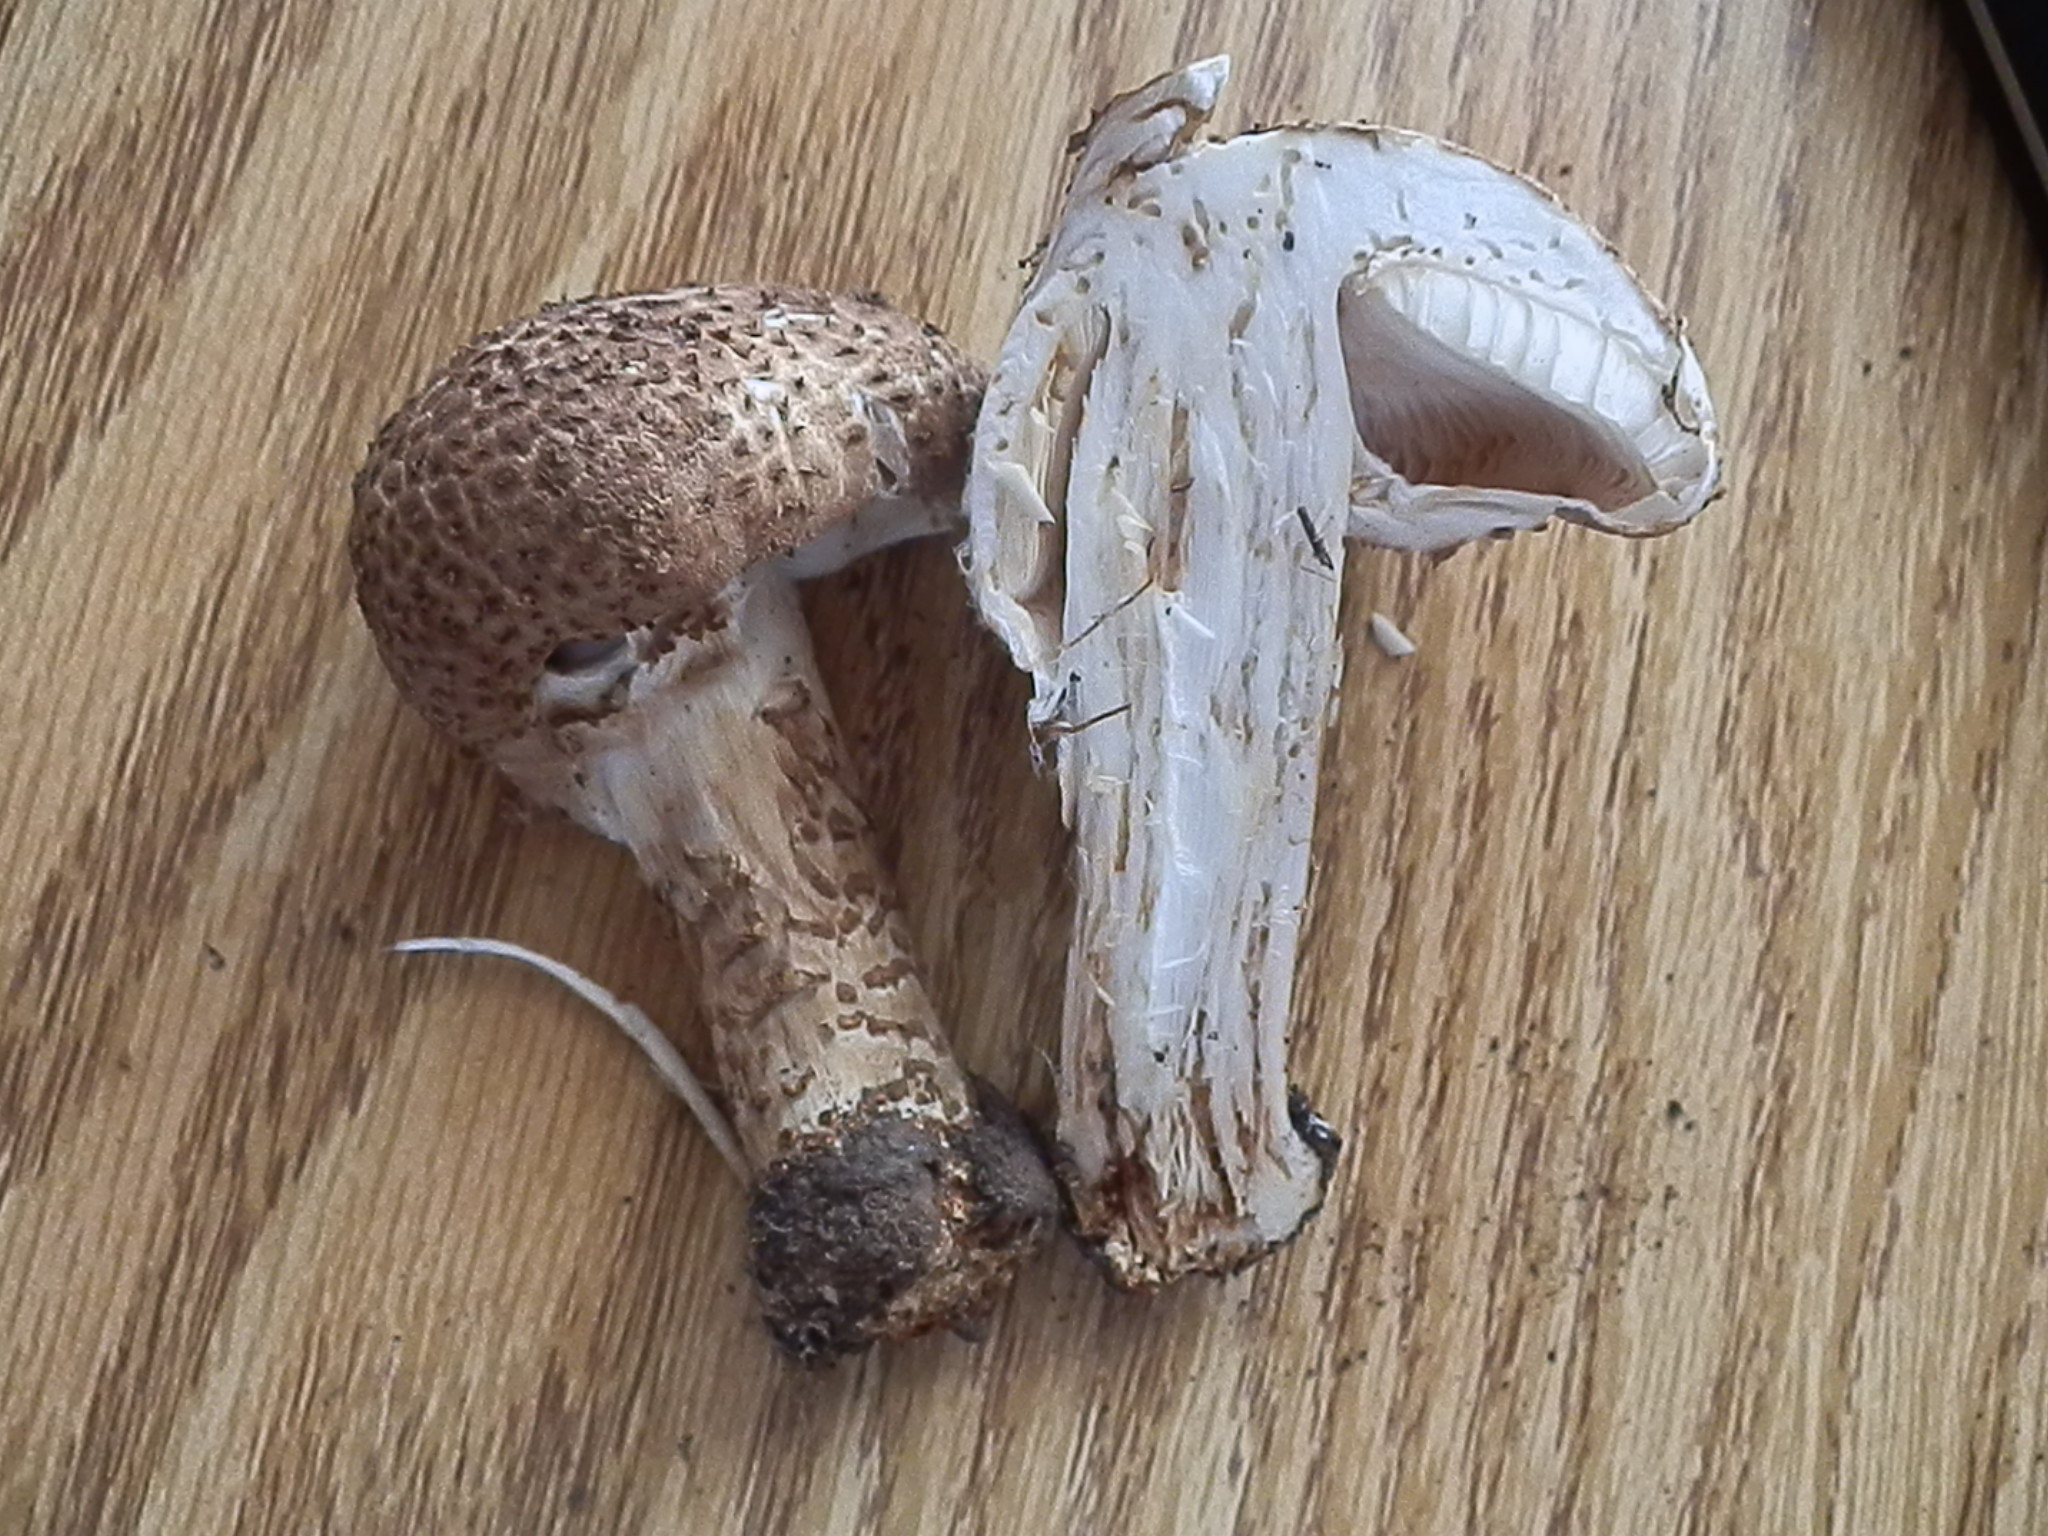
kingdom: Fungi
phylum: Basidiomycota
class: Agaricomycetes
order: Agaricales
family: Agaricaceae
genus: Echinoderma
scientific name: Echinoderma asperum
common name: Freckled dapperling
